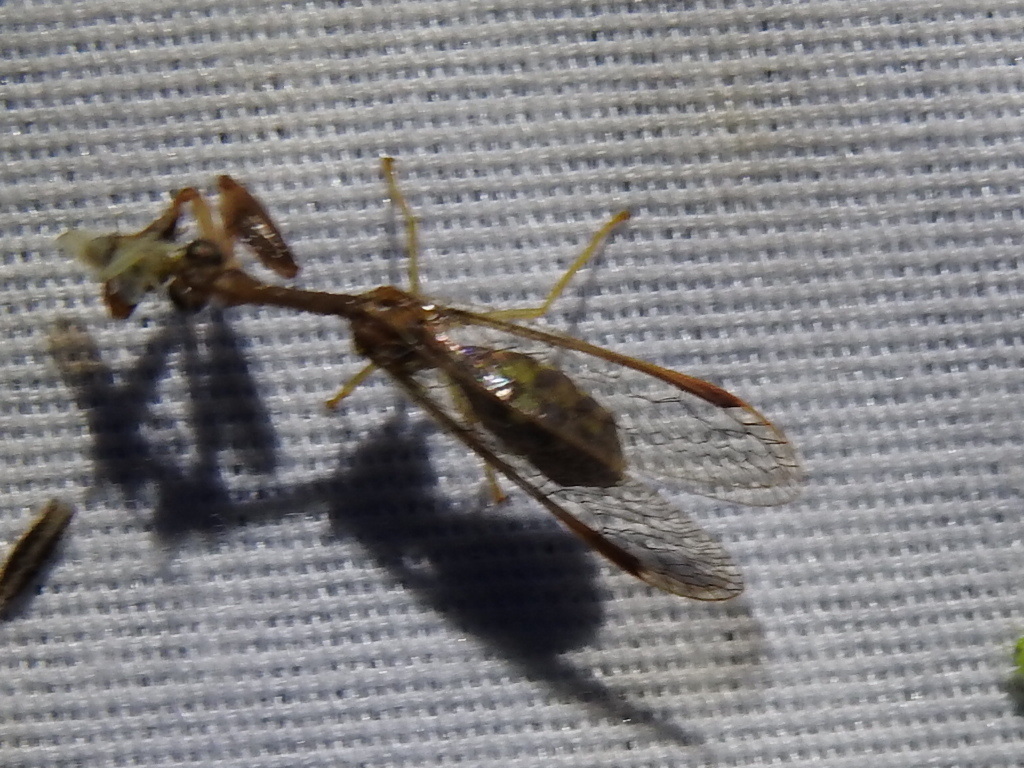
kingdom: Animalia
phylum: Arthropoda
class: Insecta
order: Neuroptera
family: Mantispidae
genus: Dicromantispa
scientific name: Dicromantispa sayi
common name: Say's mantidfly
